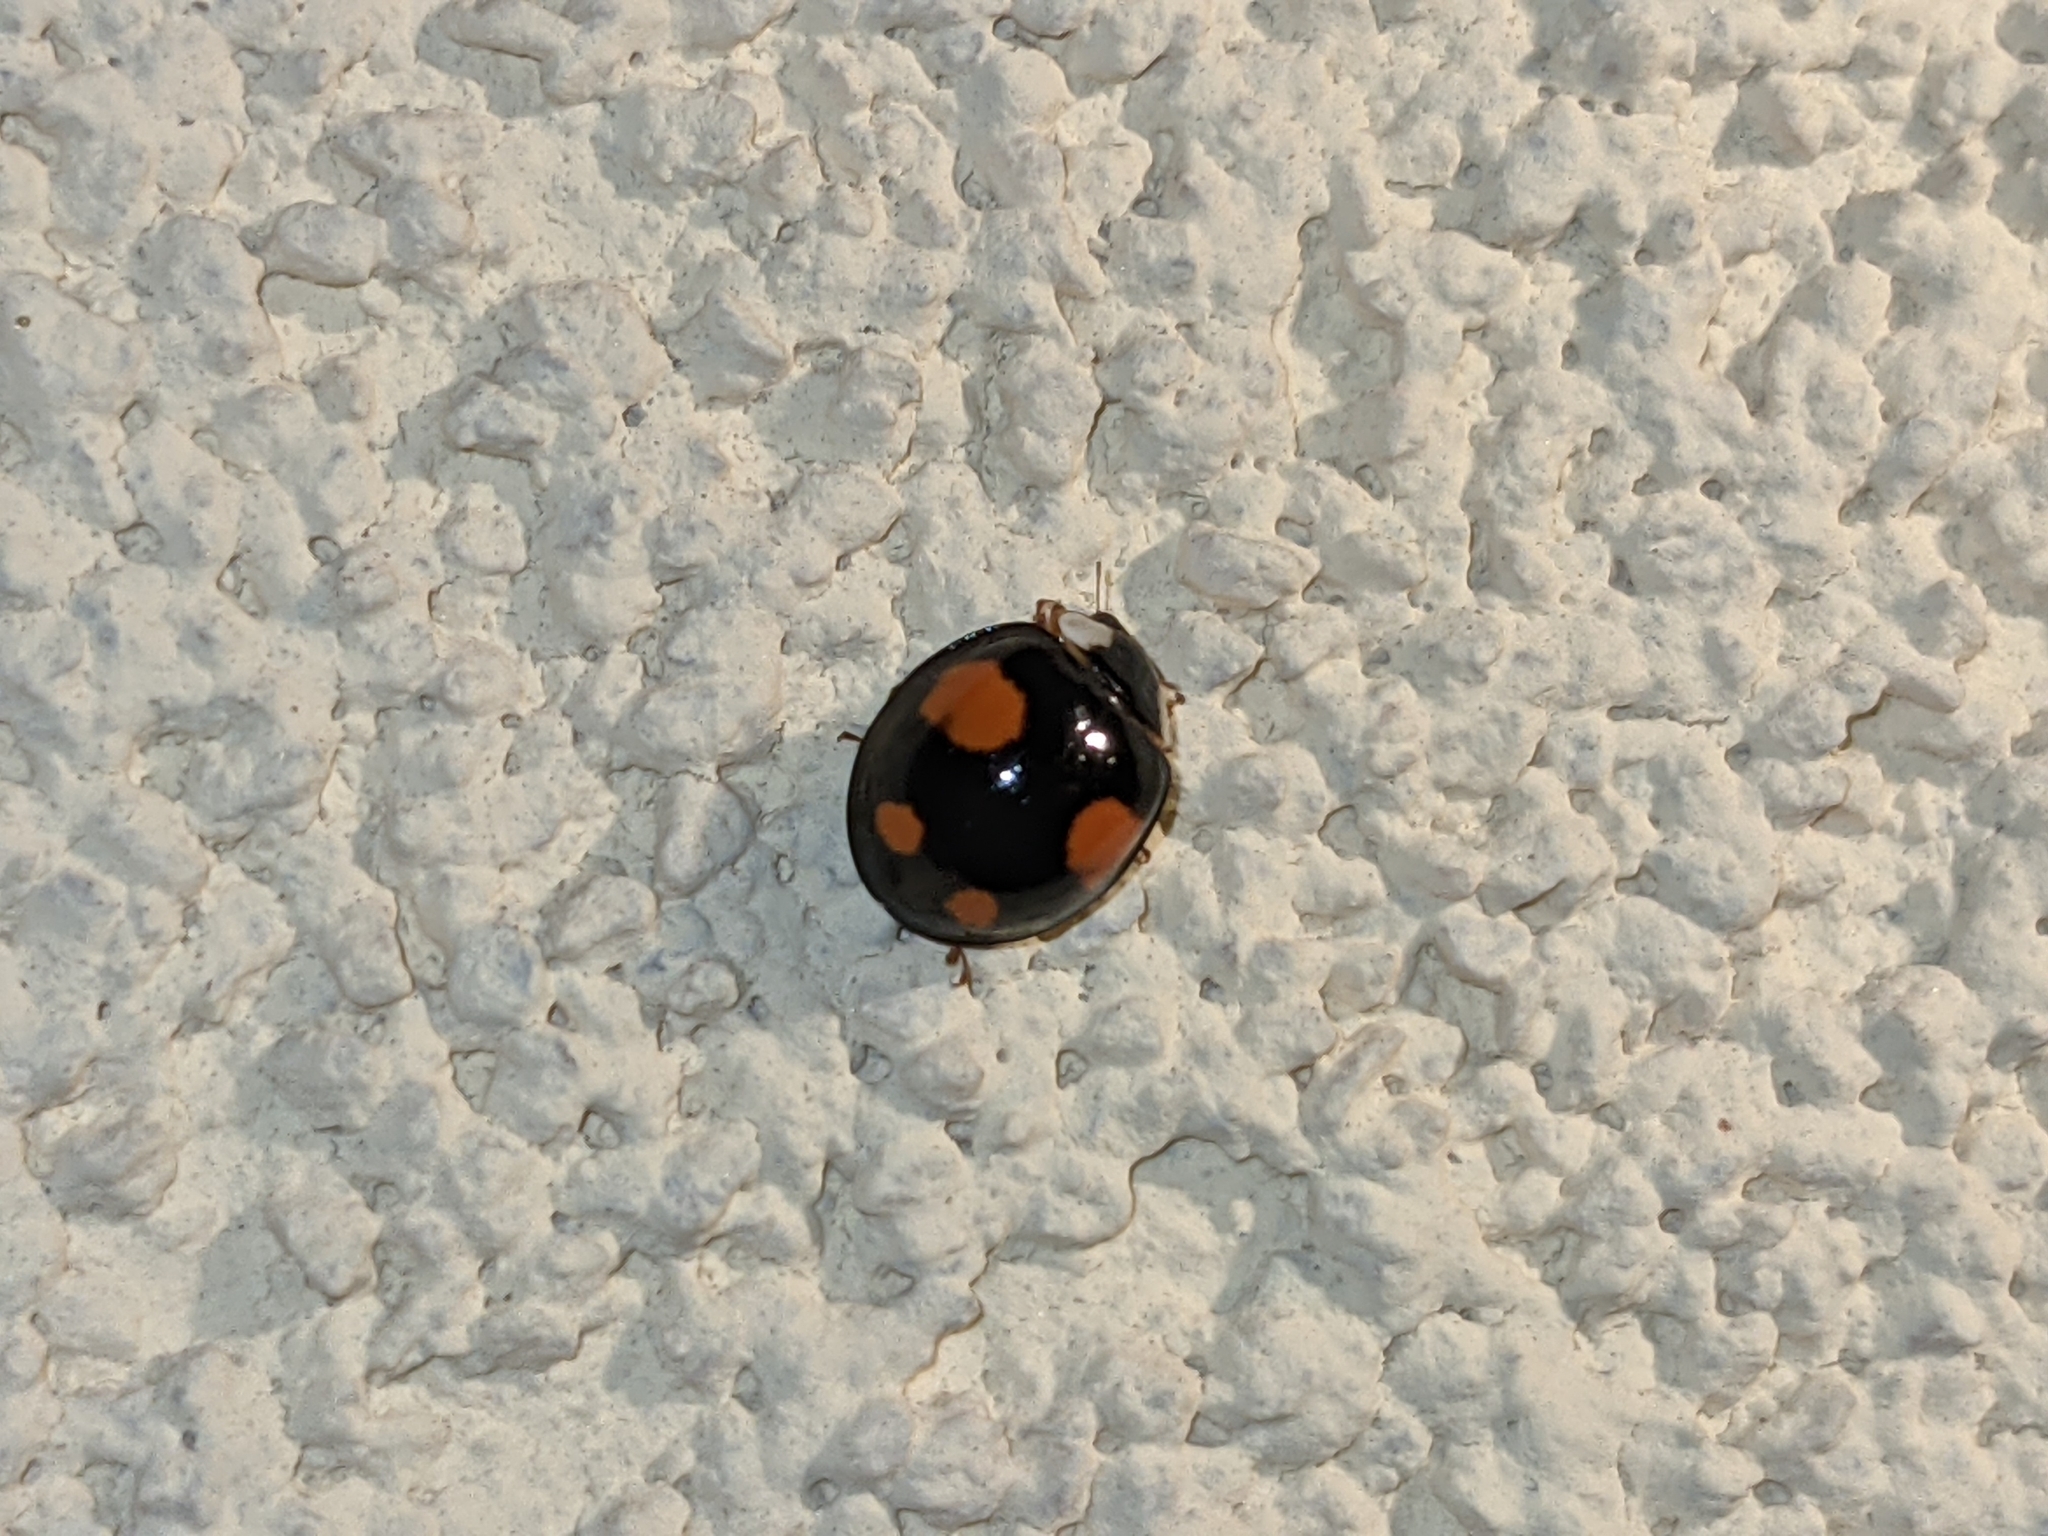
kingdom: Animalia
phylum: Arthropoda
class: Insecta
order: Coleoptera
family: Coccinellidae
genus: Harmonia
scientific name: Harmonia axyridis
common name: Harlequin ladybird
